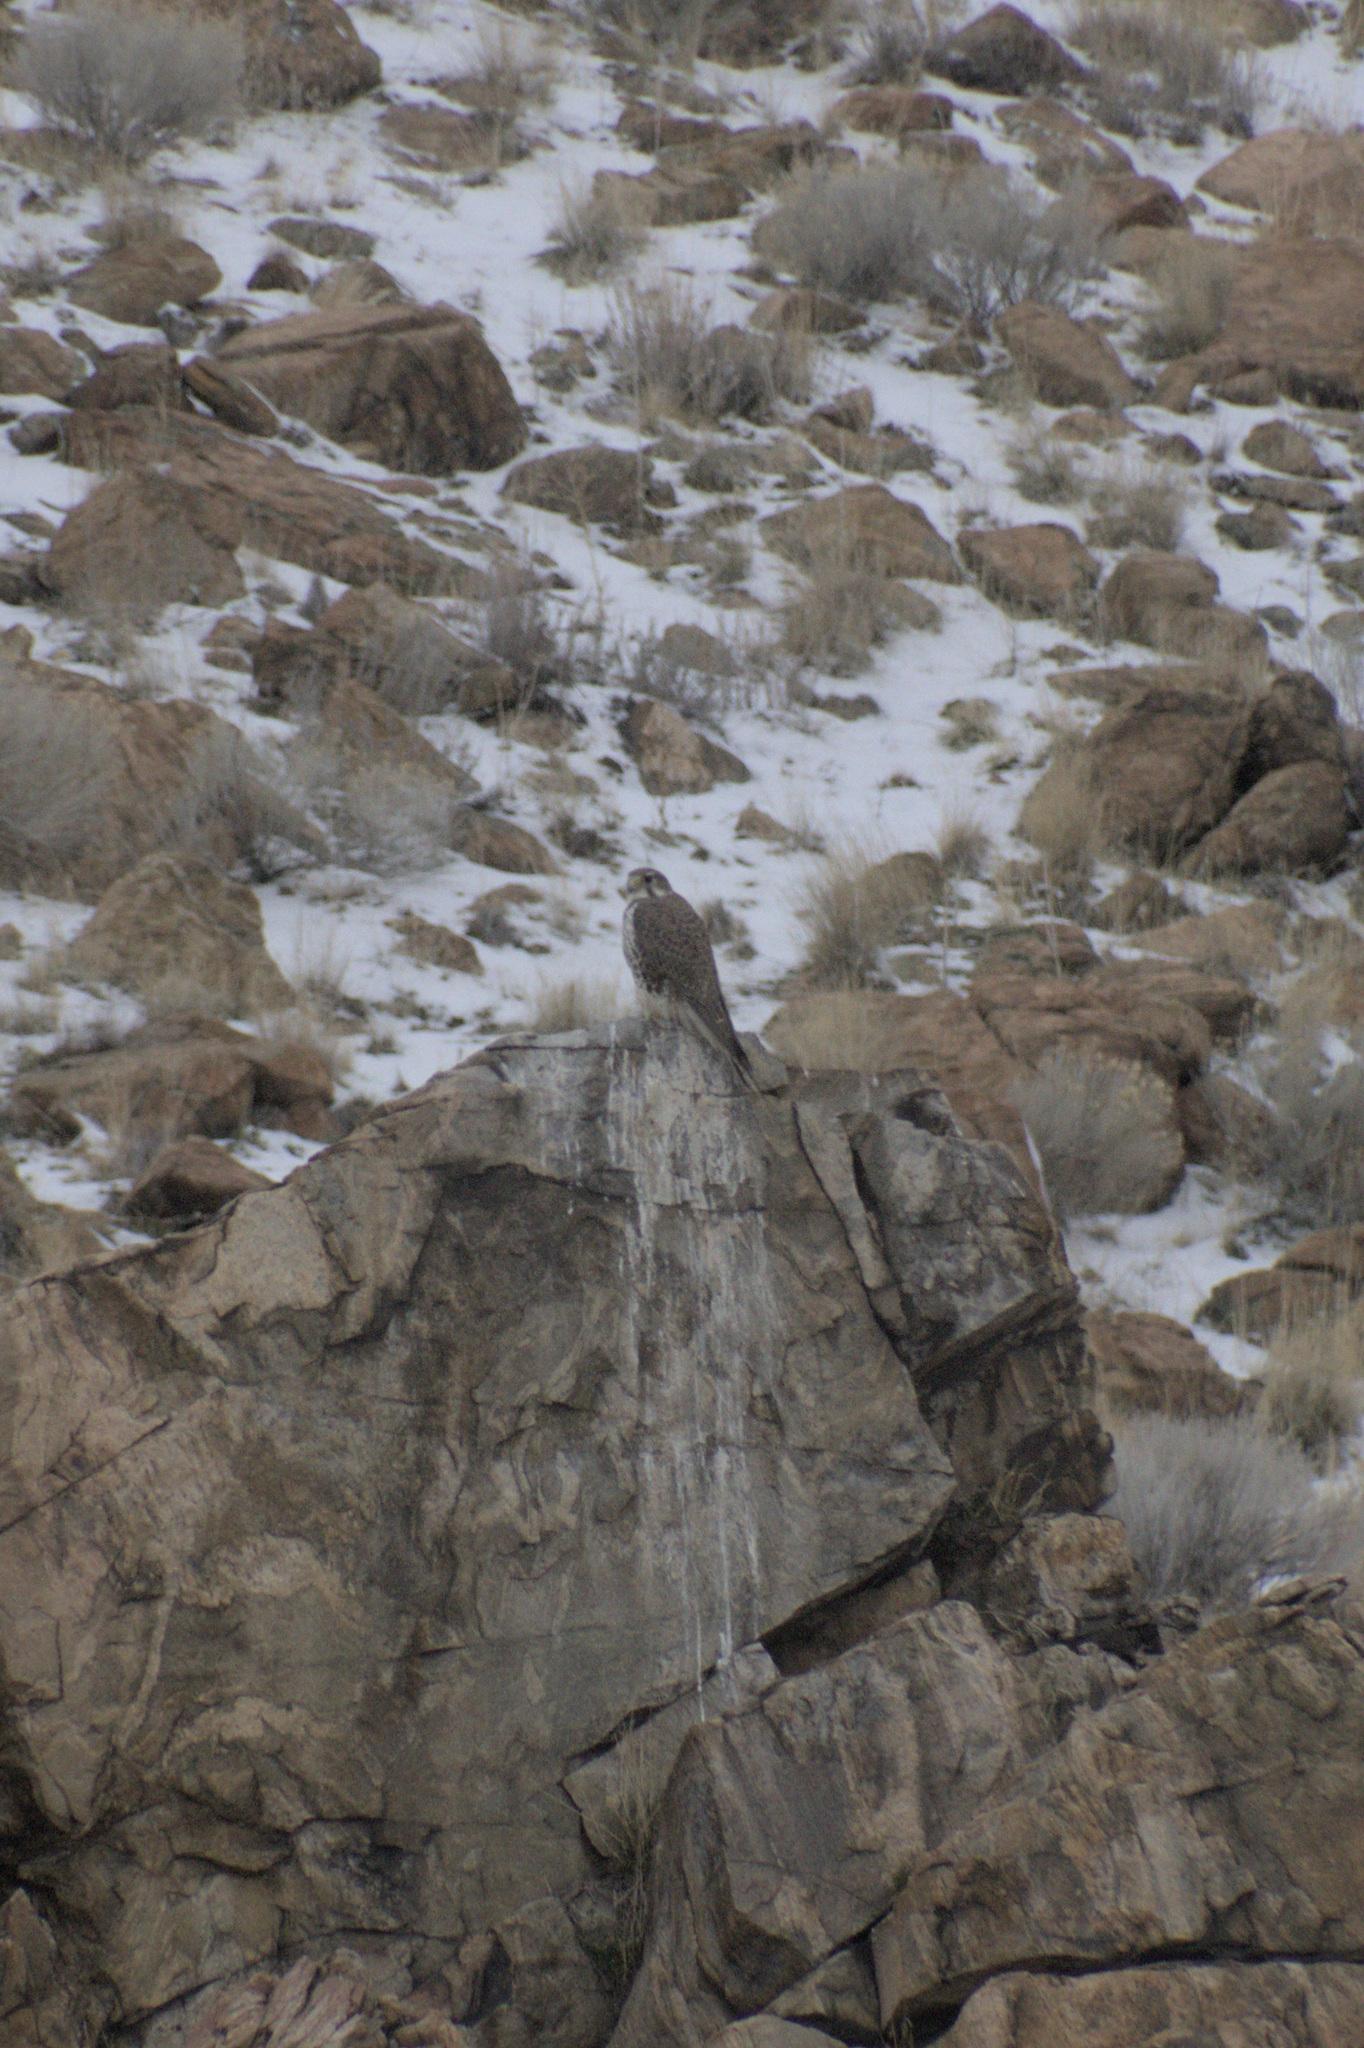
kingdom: Animalia
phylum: Chordata
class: Aves
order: Falconiformes
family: Falconidae
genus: Falco
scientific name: Falco mexicanus
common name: Prairie falcon
